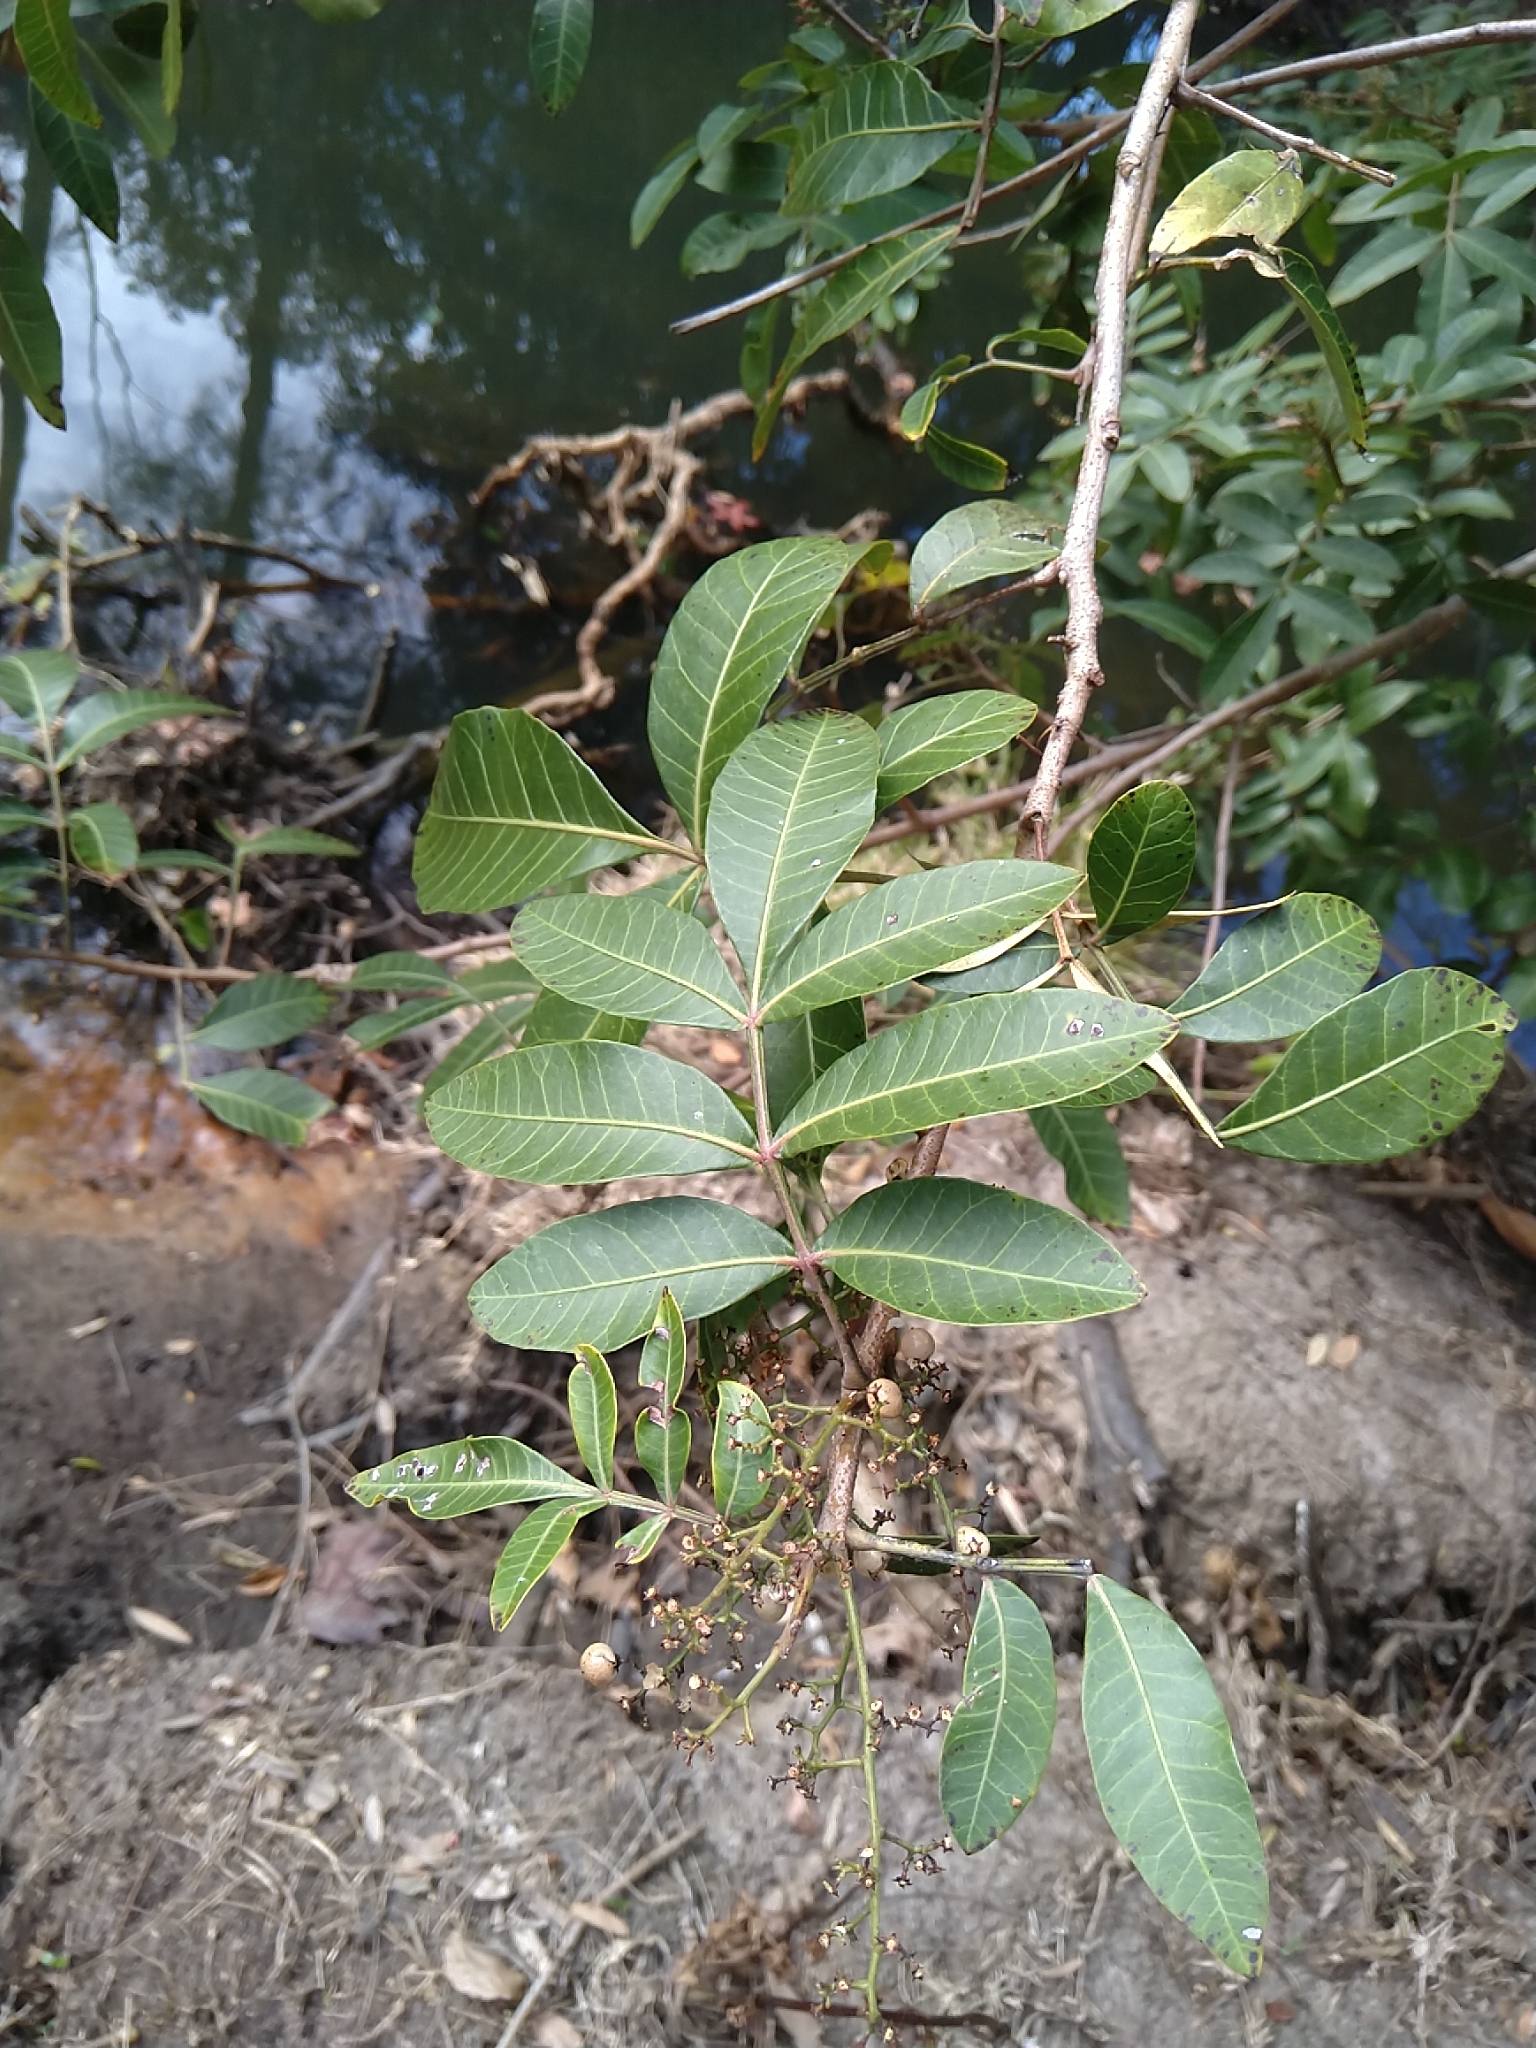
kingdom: Plantae
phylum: Tracheophyta
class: Magnoliopsida
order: Sapindales
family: Anacardiaceae
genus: Schinus
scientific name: Schinus terebinthifolia
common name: Brazilian peppertree
